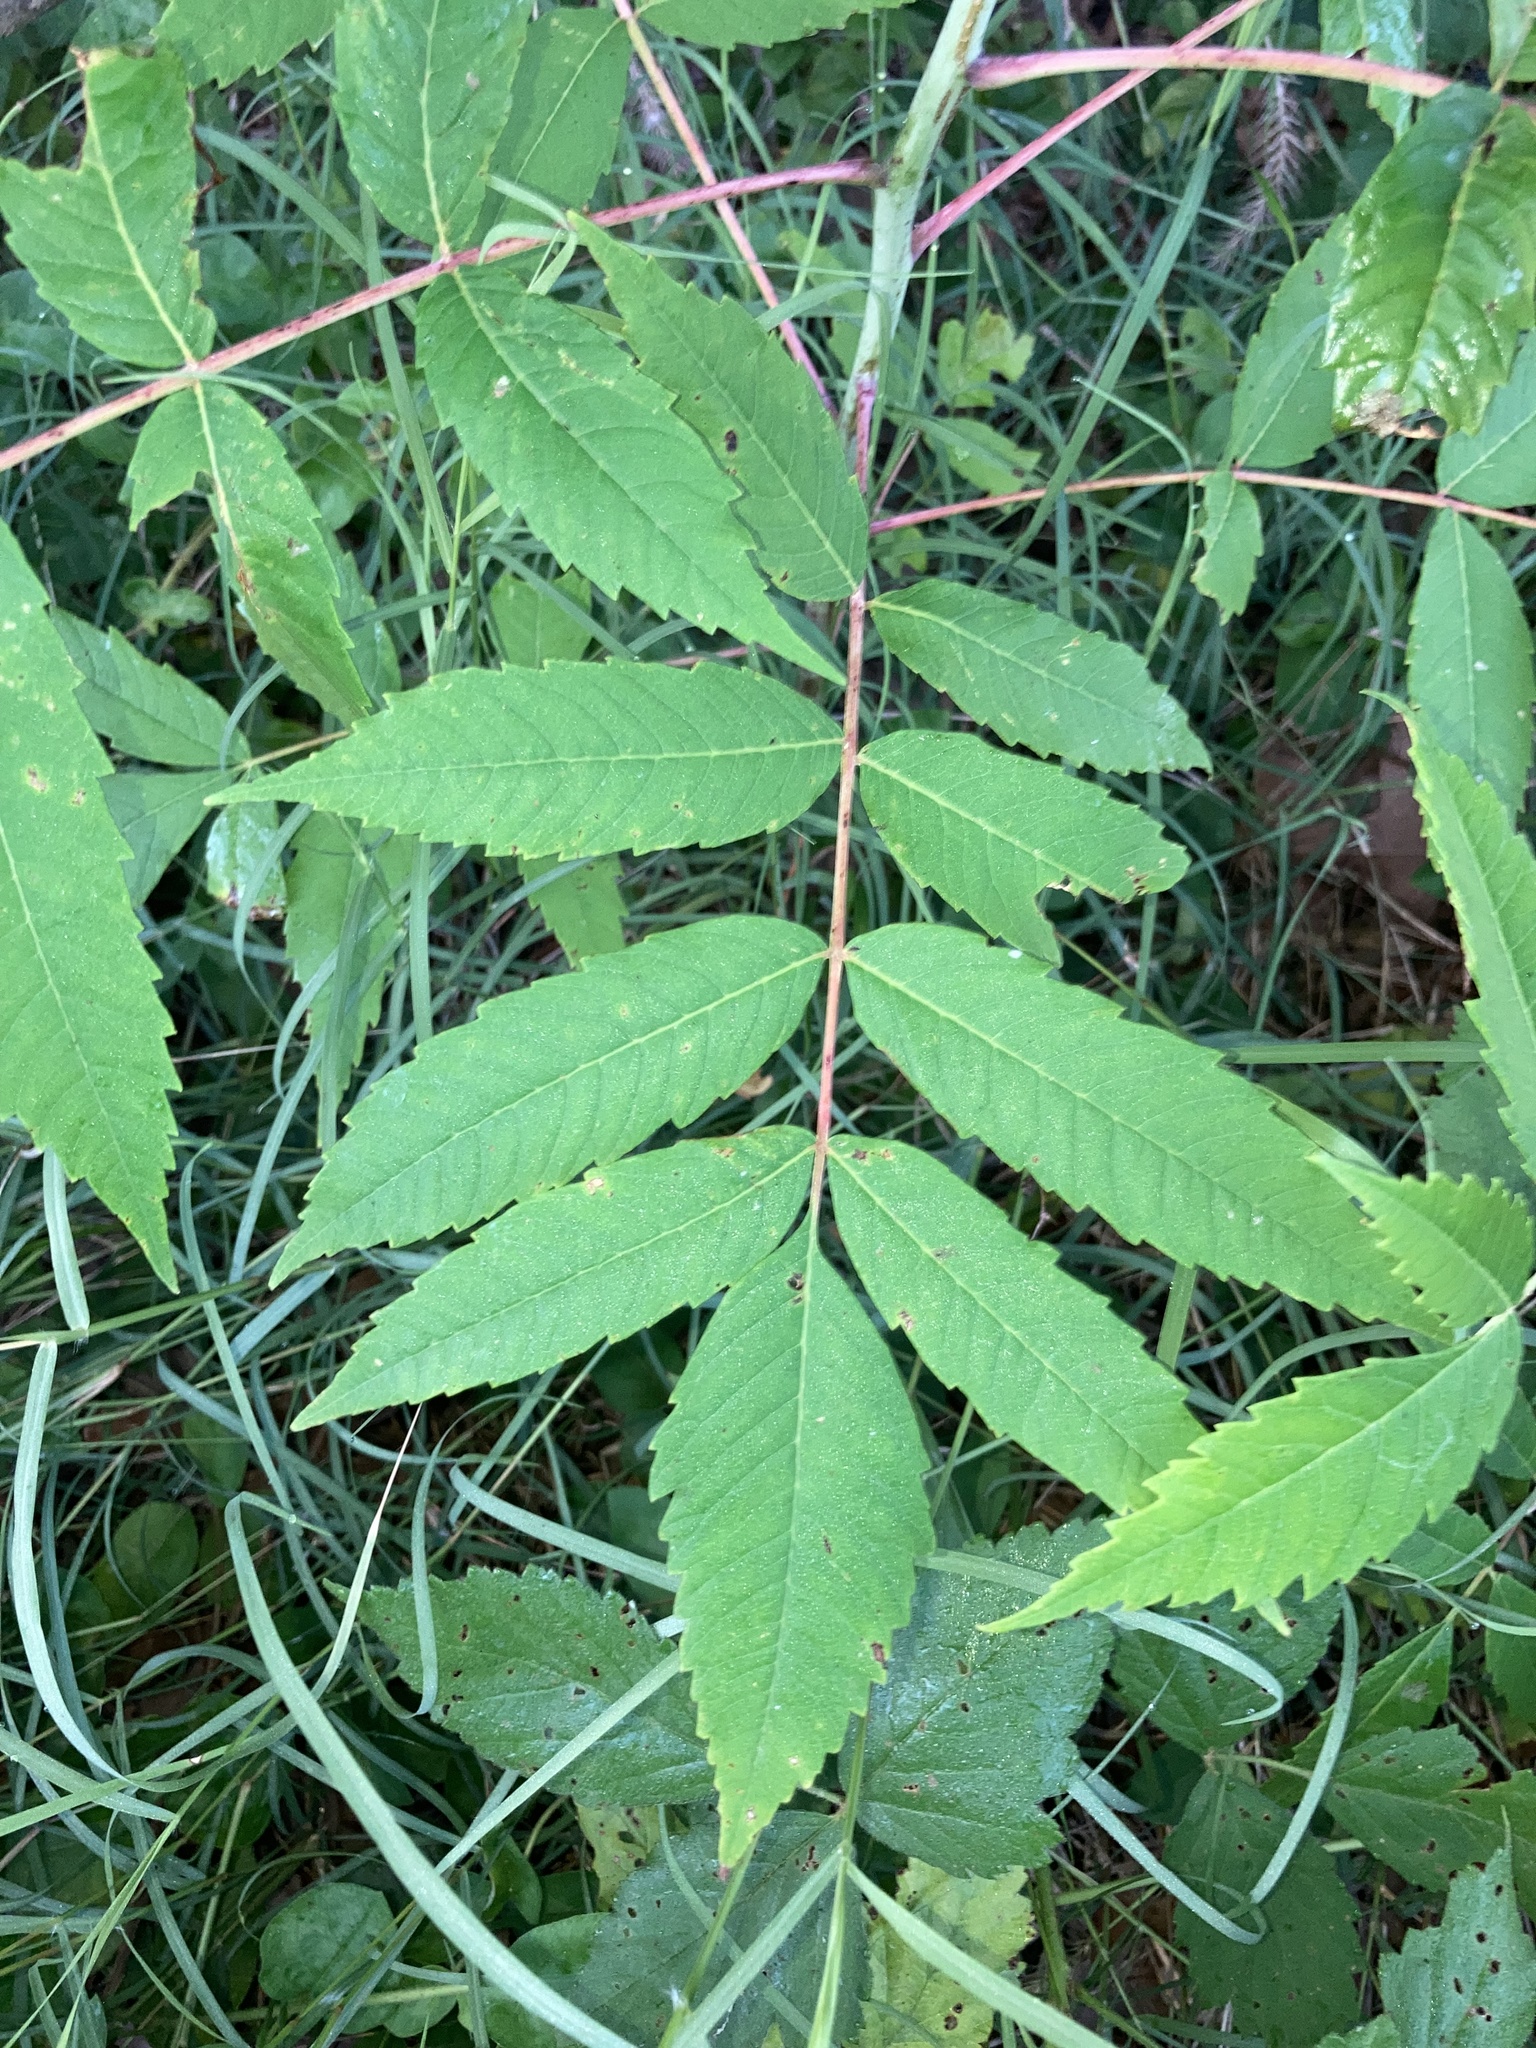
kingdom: Plantae
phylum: Tracheophyta
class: Magnoliopsida
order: Sapindales
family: Anacardiaceae
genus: Rhus
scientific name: Rhus glabra
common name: Scarlet sumac
